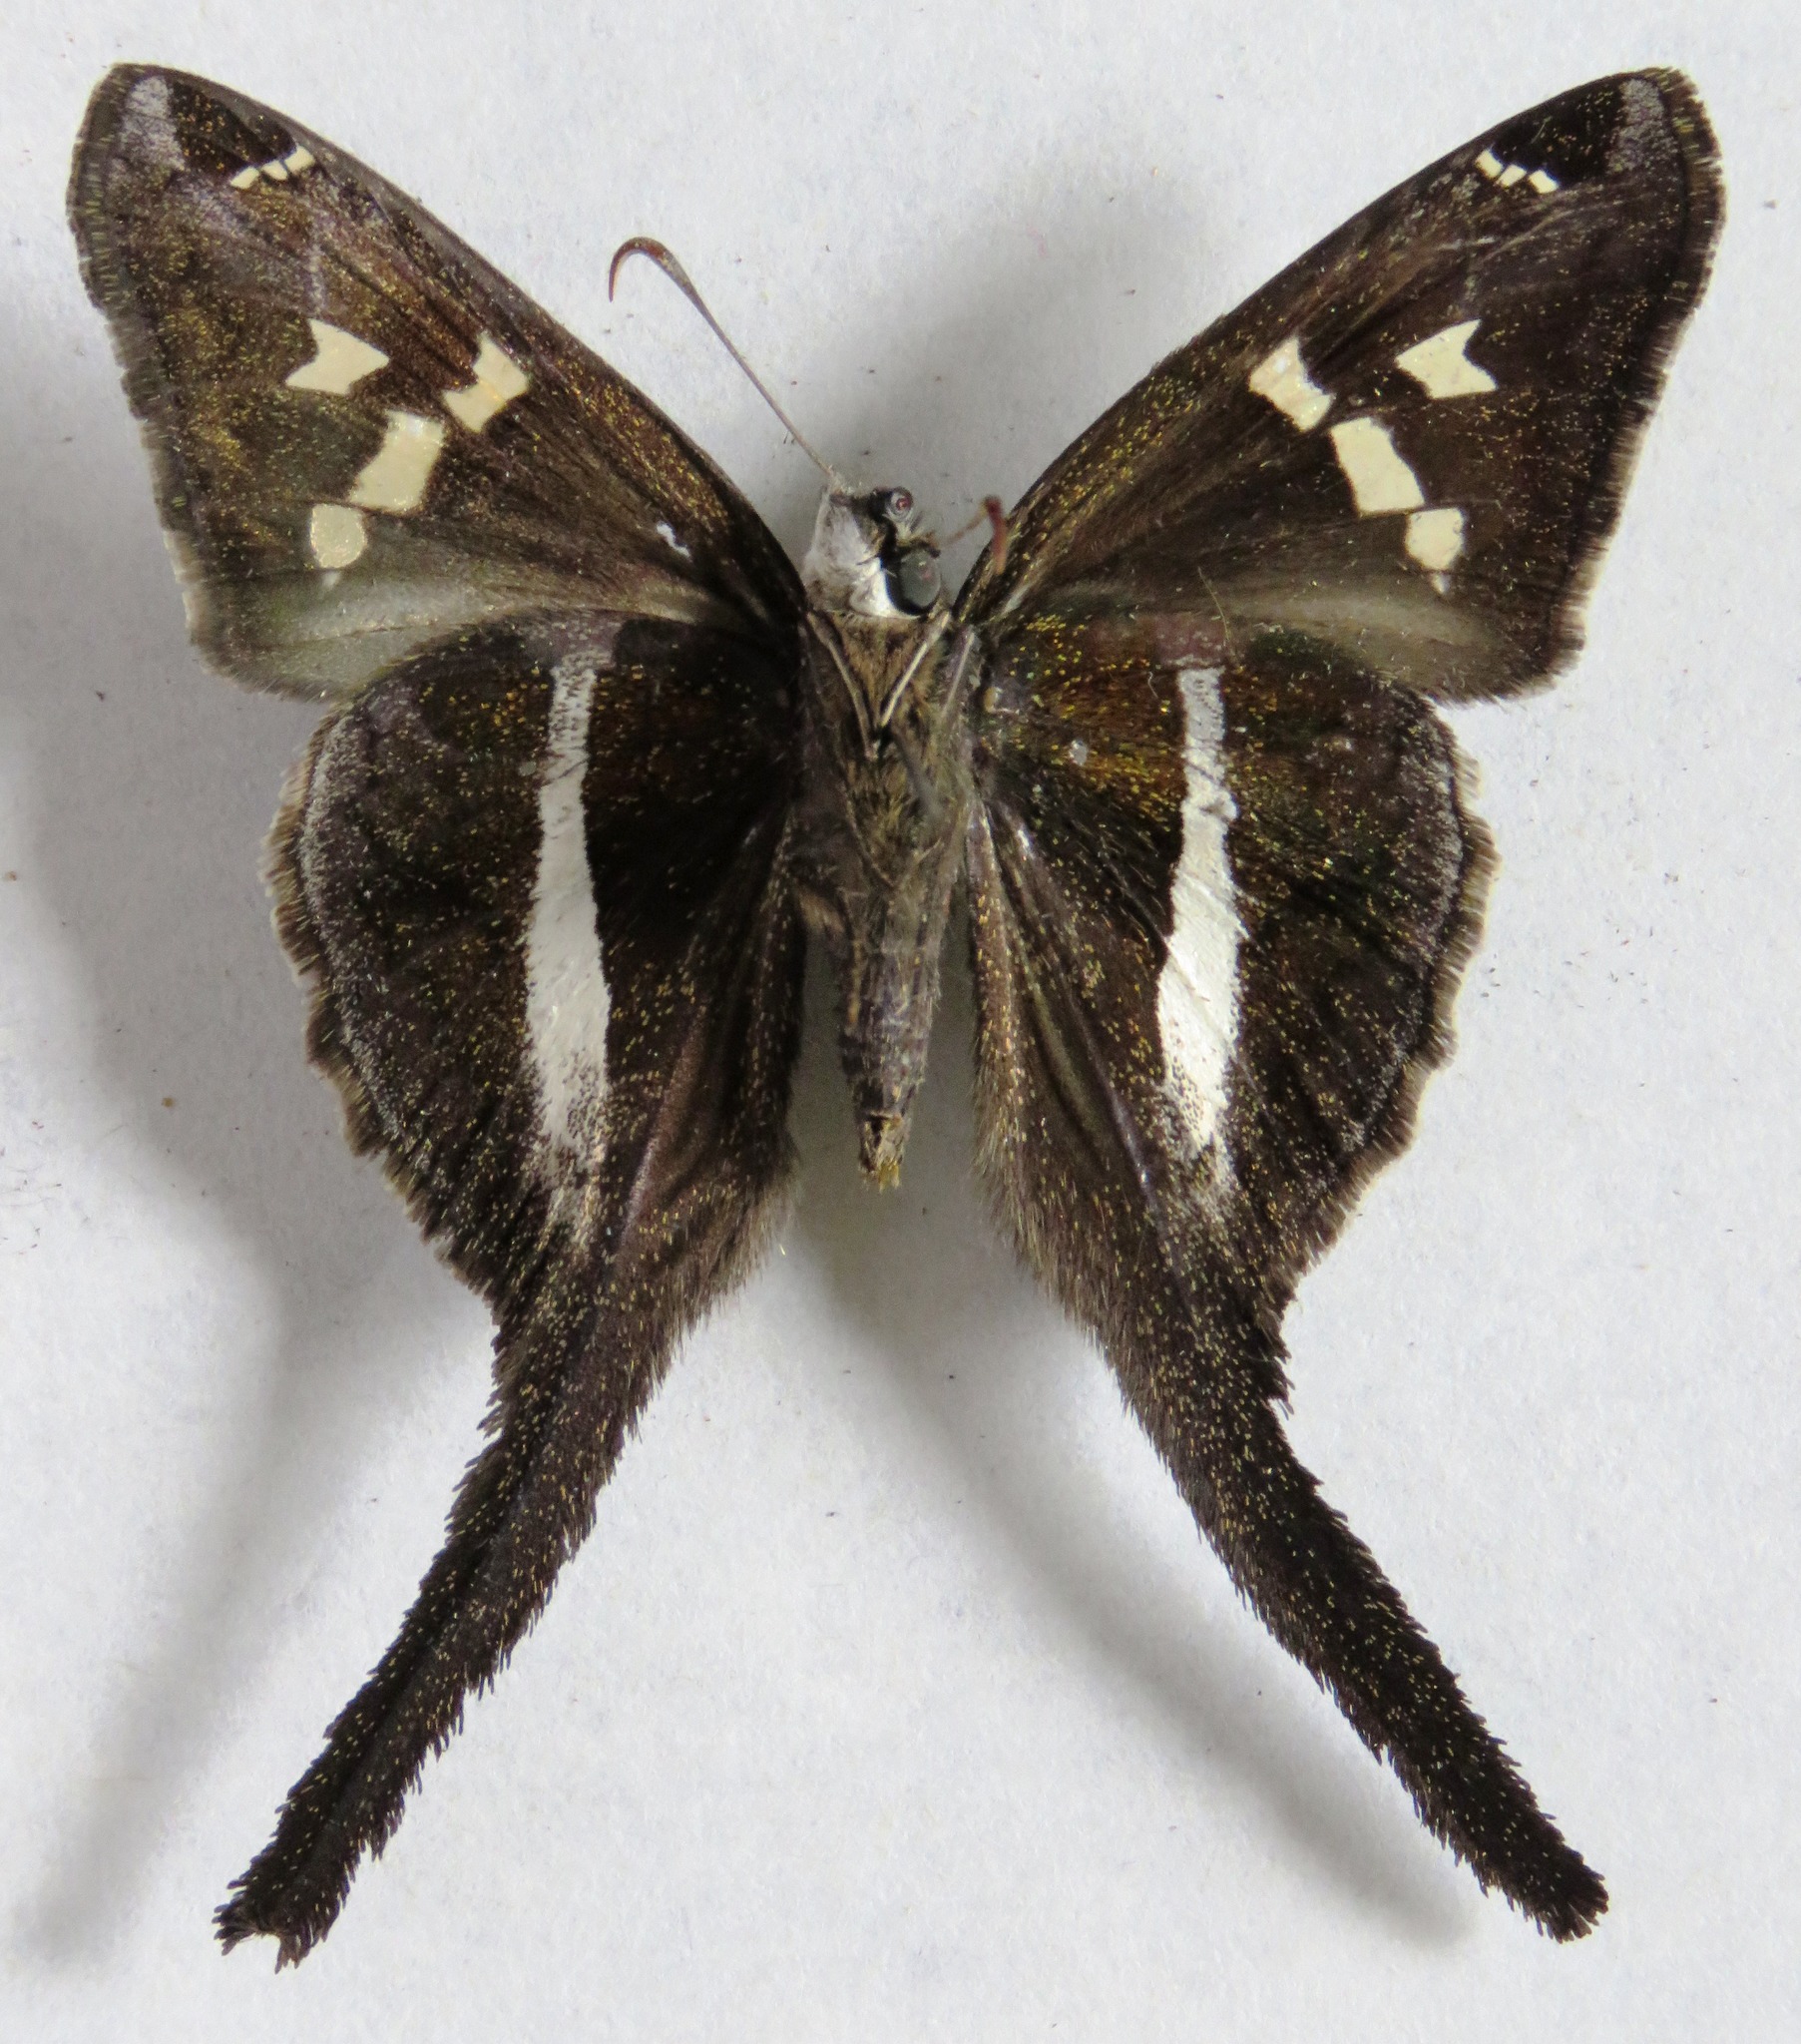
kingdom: Animalia
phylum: Arthropoda
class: Insecta
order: Lepidoptera
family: Hesperiidae
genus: Chioides
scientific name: Chioides catillus
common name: Silverbanded skipper
